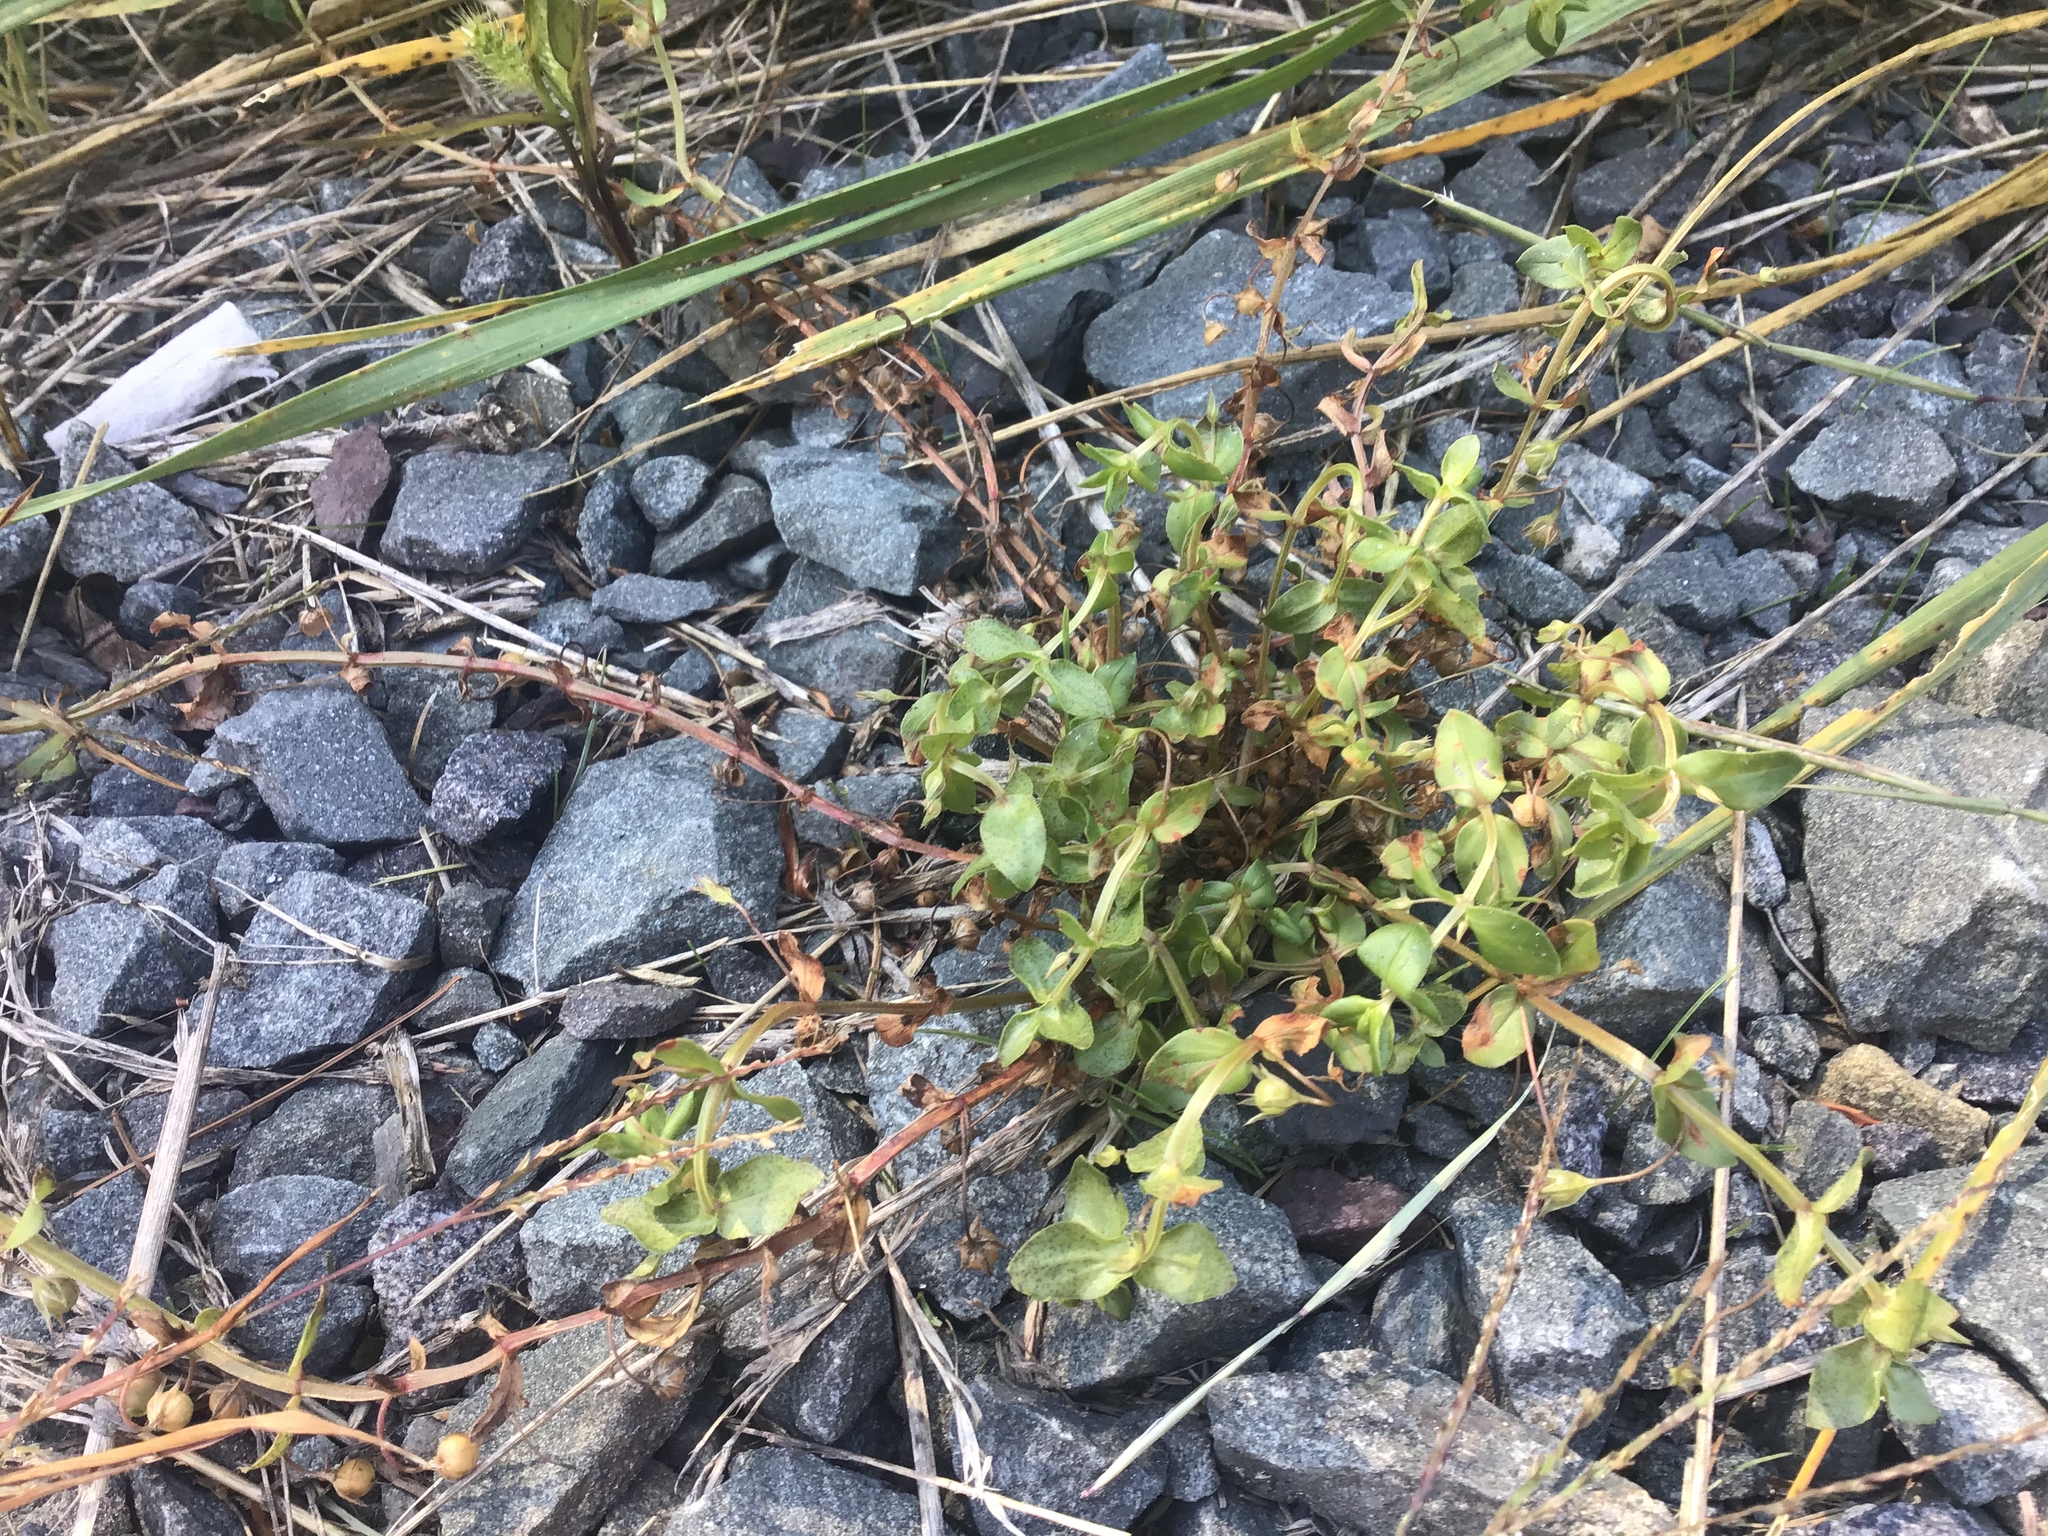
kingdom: Plantae
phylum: Tracheophyta
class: Magnoliopsida
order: Ericales
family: Primulaceae
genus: Lysimachia
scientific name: Lysimachia arvensis
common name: Scarlet pimpernel
